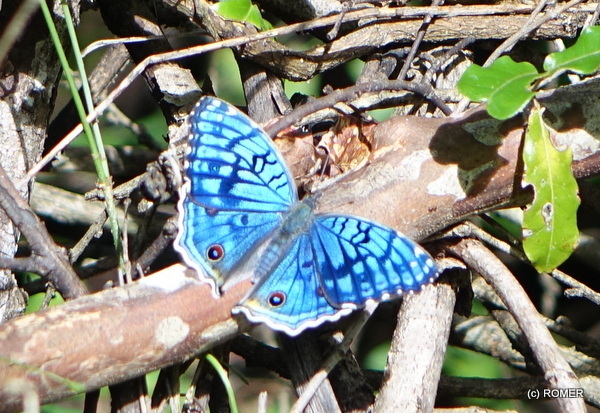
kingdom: Animalia
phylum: Arthropoda
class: Insecta
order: Lepidoptera
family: Nymphalidae
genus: Junonia
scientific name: Junonia rhadama
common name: Royal blue pansy
